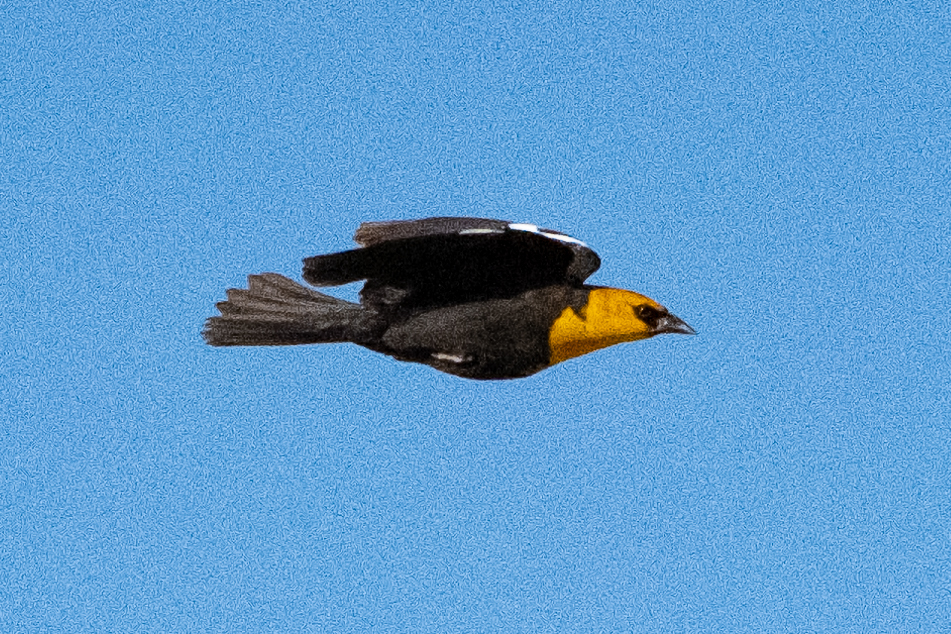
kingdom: Animalia
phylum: Chordata
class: Aves
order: Passeriformes
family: Icteridae
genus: Xanthocephalus
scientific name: Xanthocephalus xanthocephalus
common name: Yellow-headed blackbird
